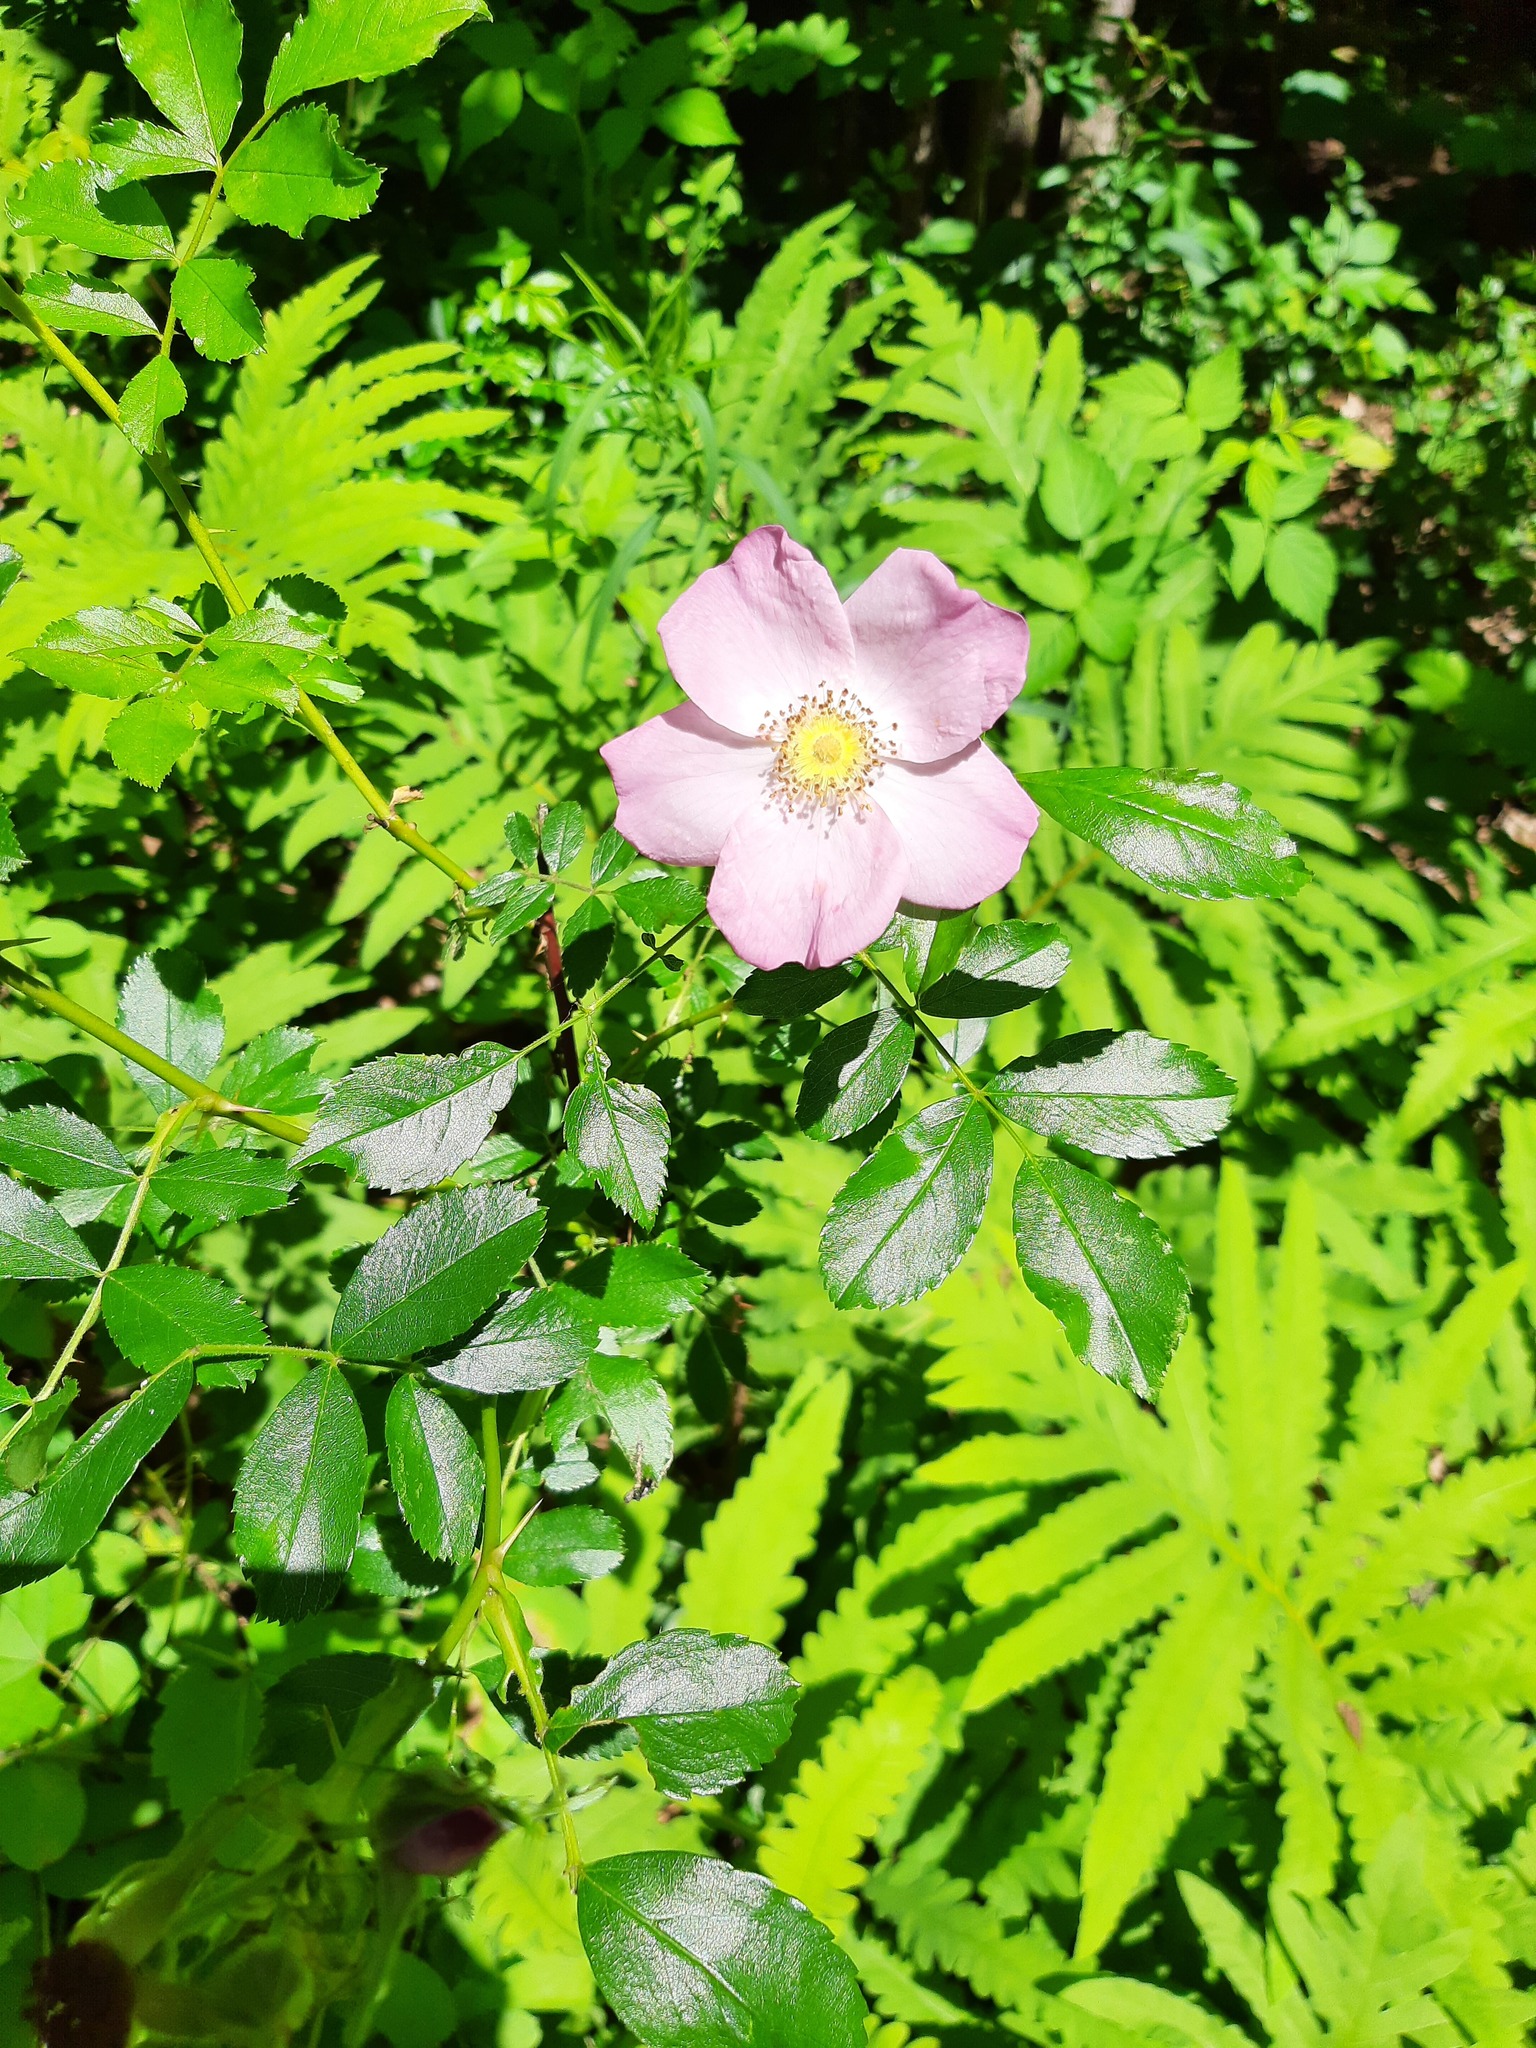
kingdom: Plantae
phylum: Tracheophyta
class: Magnoliopsida
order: Rosales
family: Rosaceae
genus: Rosa
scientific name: Rosa carolina
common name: Pasture rose
